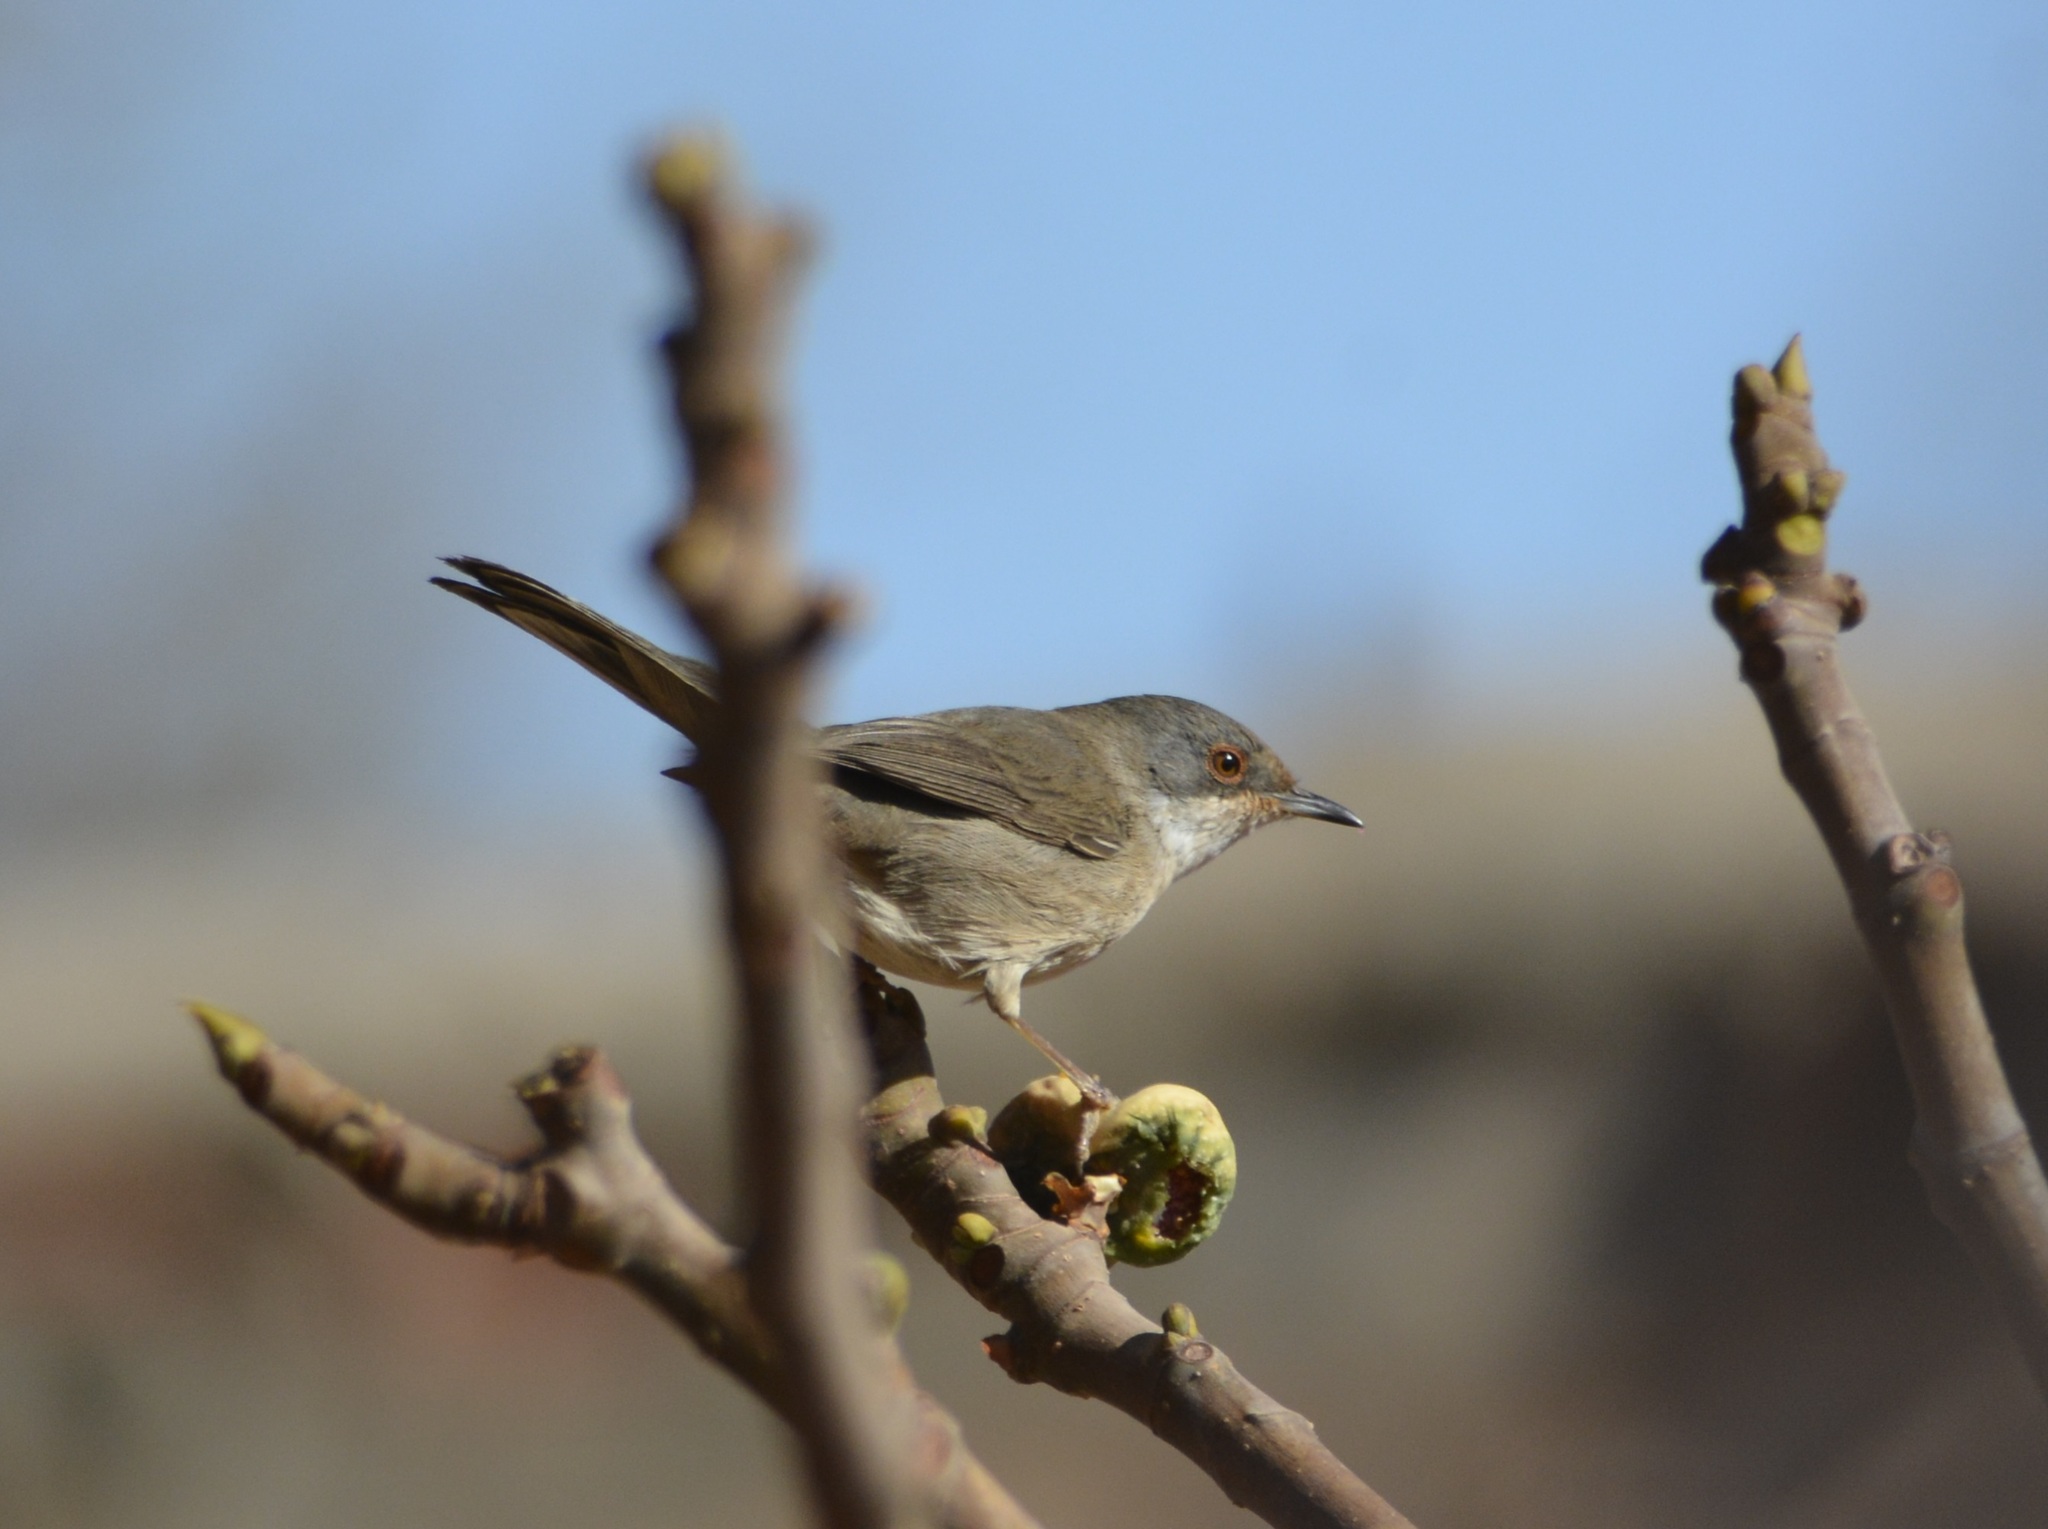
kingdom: Animalia
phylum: Chordata
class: Aves
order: Passeriformes
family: Sylviidae
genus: Curruca
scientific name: Curruca melanocephala
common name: Sardinian warbler
